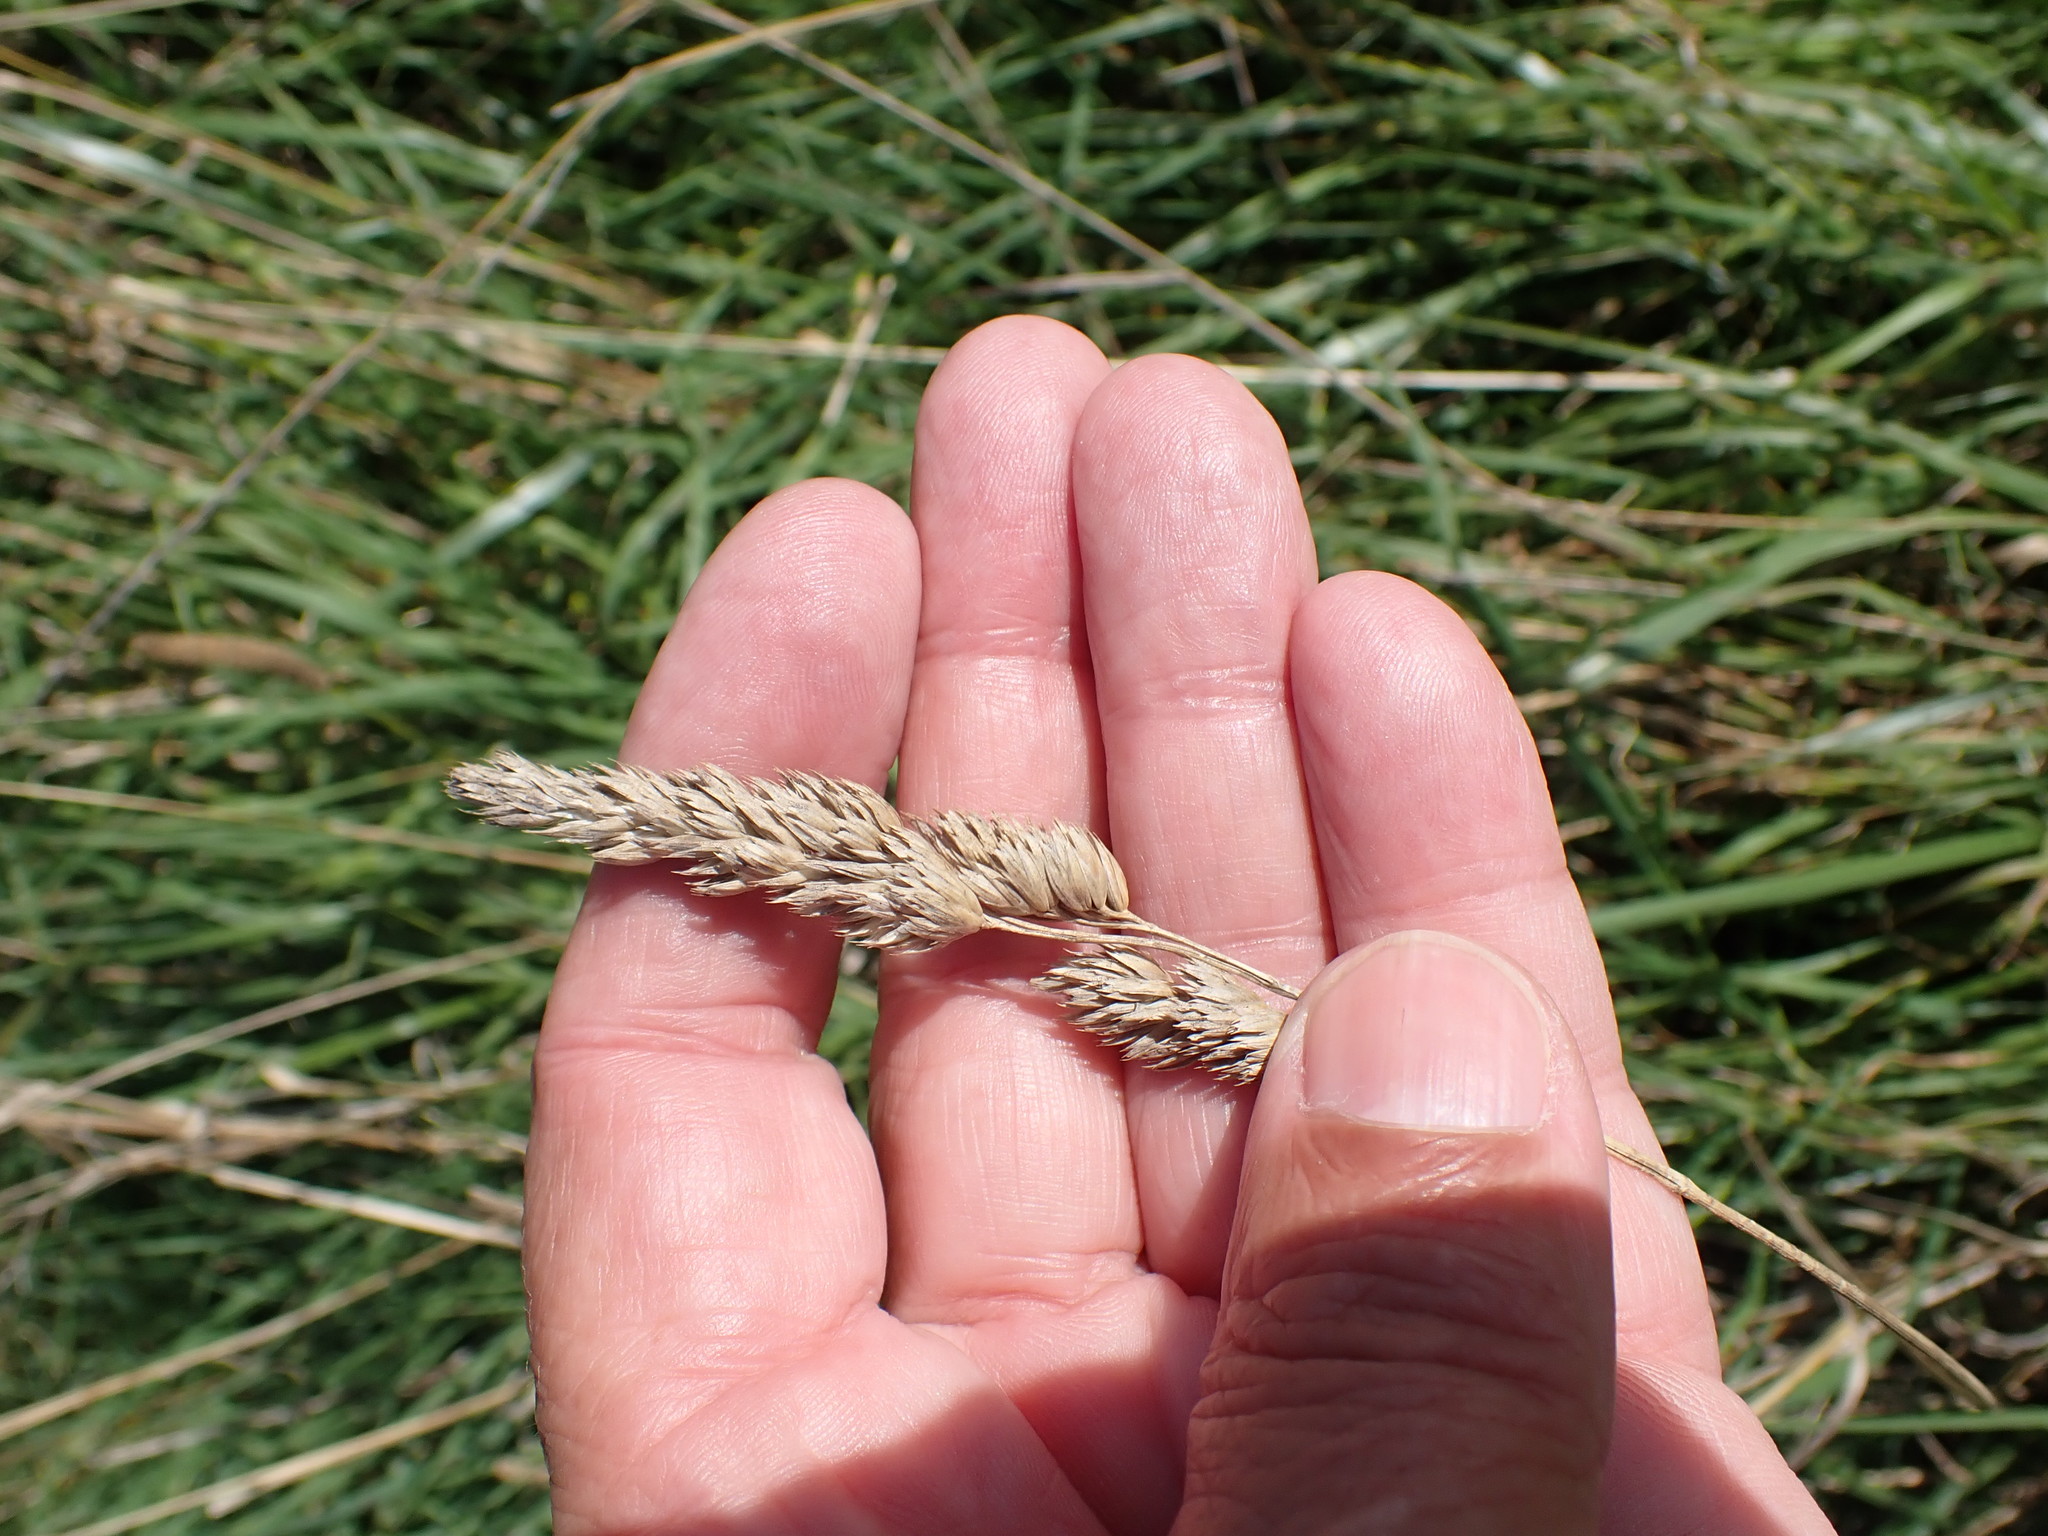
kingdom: Plantae
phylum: Tracheophyta
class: Liliopsida
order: Poales
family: Poaceae
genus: Dactylis
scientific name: Dactylis glomerata
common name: Orchardgrass
